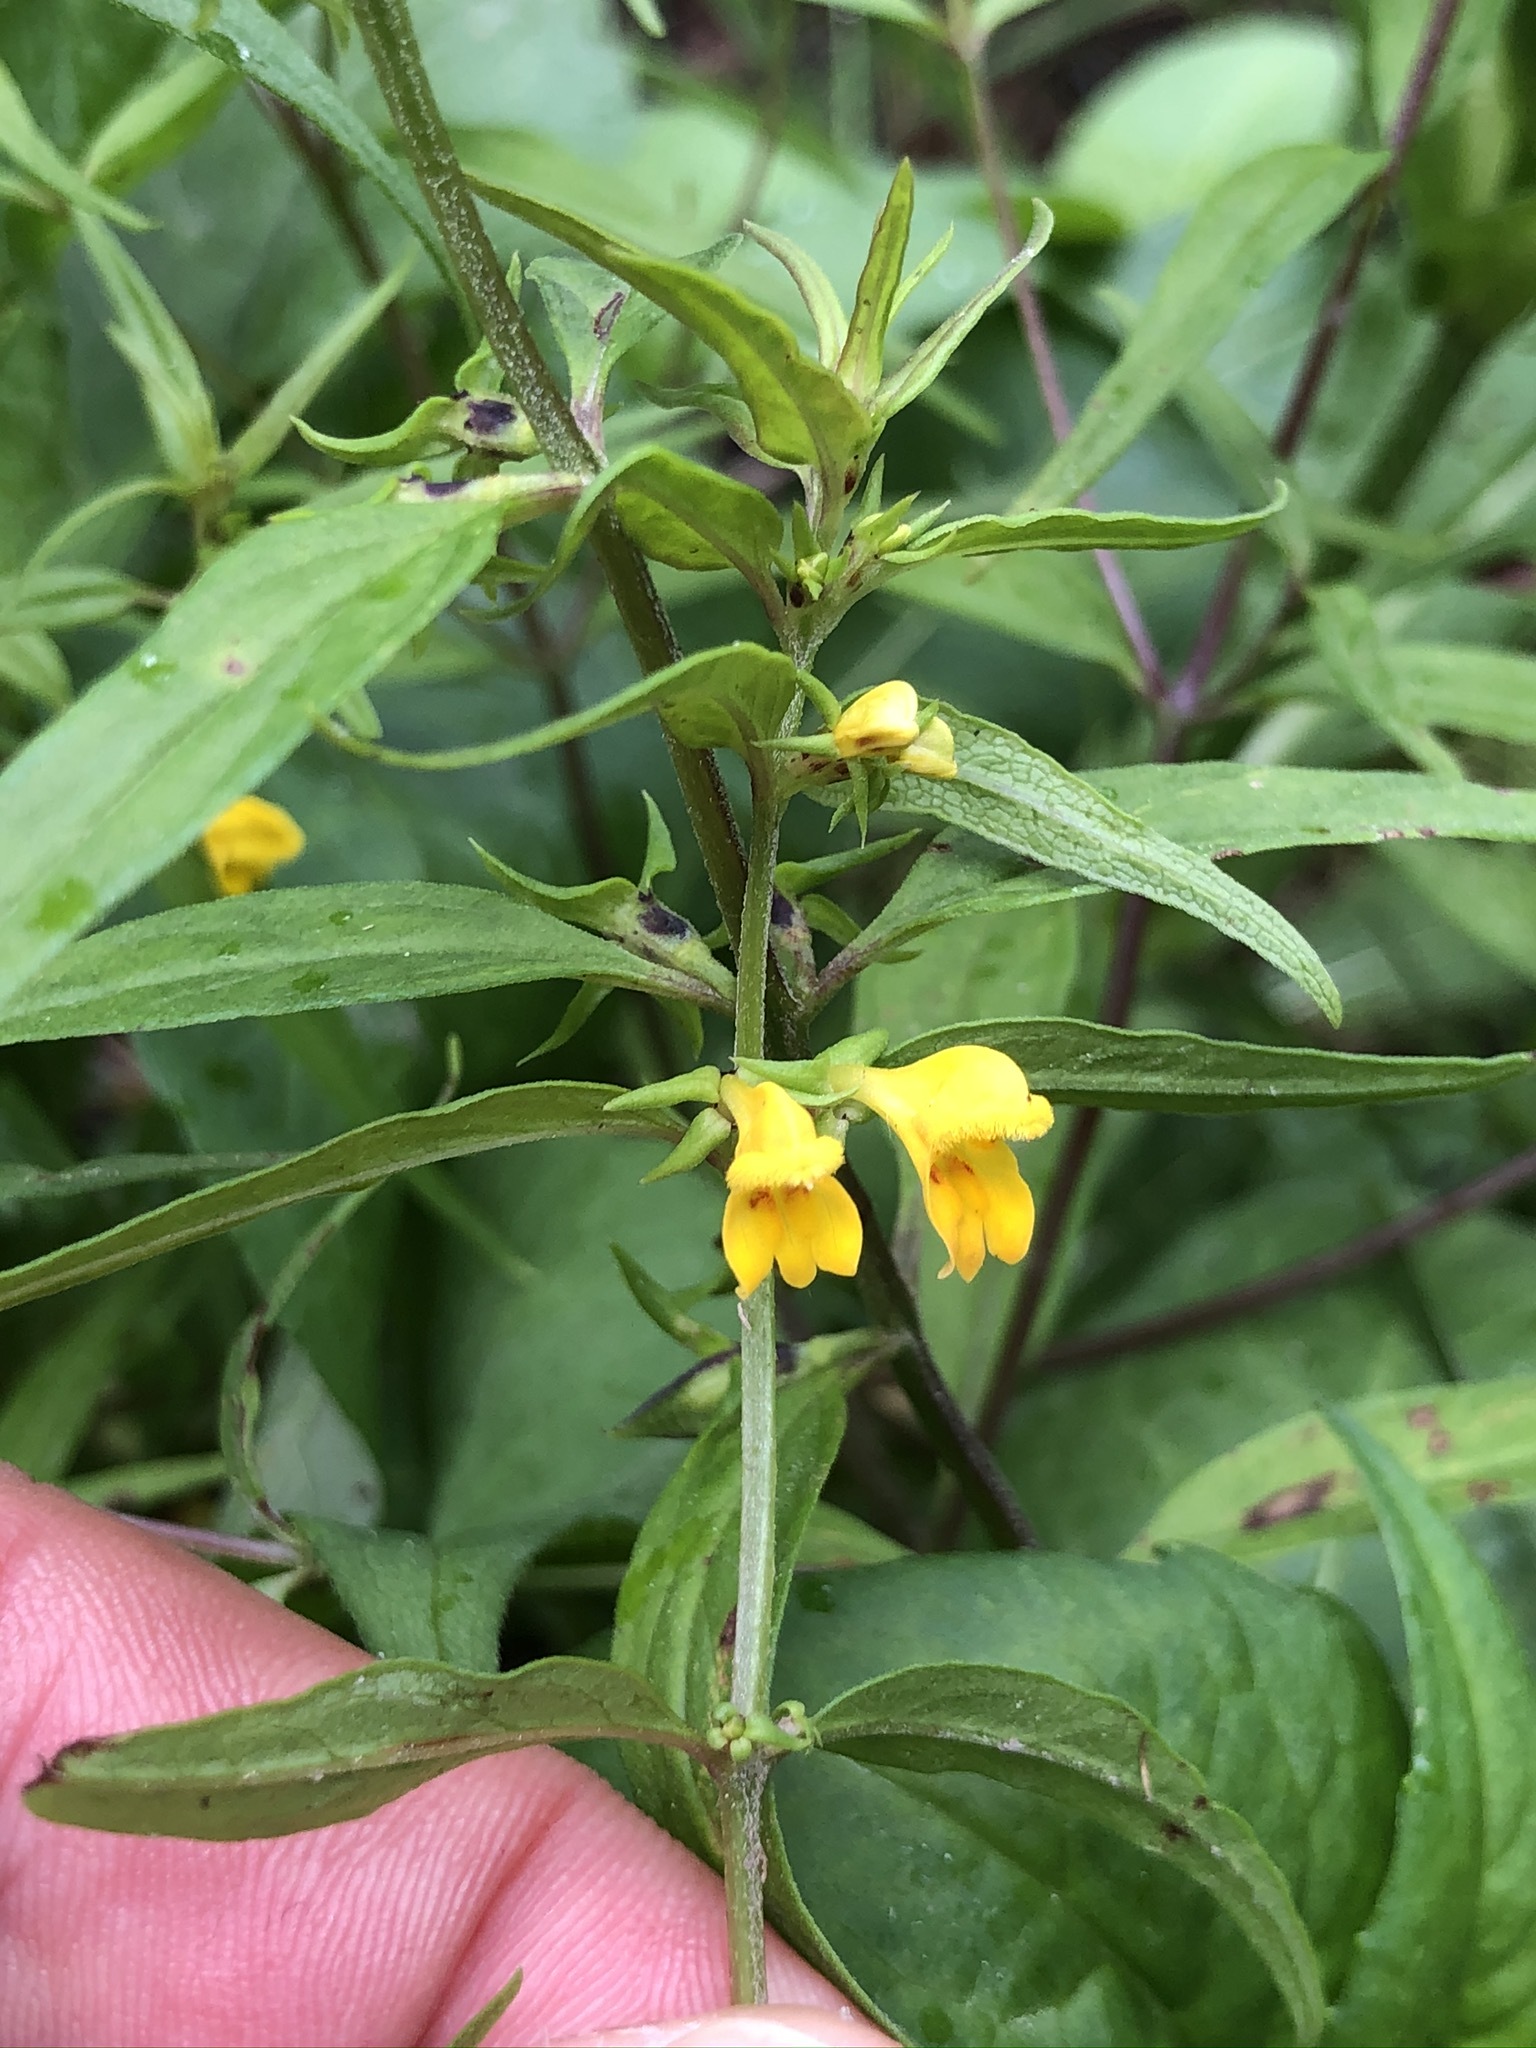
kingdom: Plantae
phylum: Tracheophyta
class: Magnoliopsida
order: Lamiales
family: Orobanchaceae
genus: Melampyrum
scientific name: Melampyrum sylvaticum
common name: Small cow-wheat
